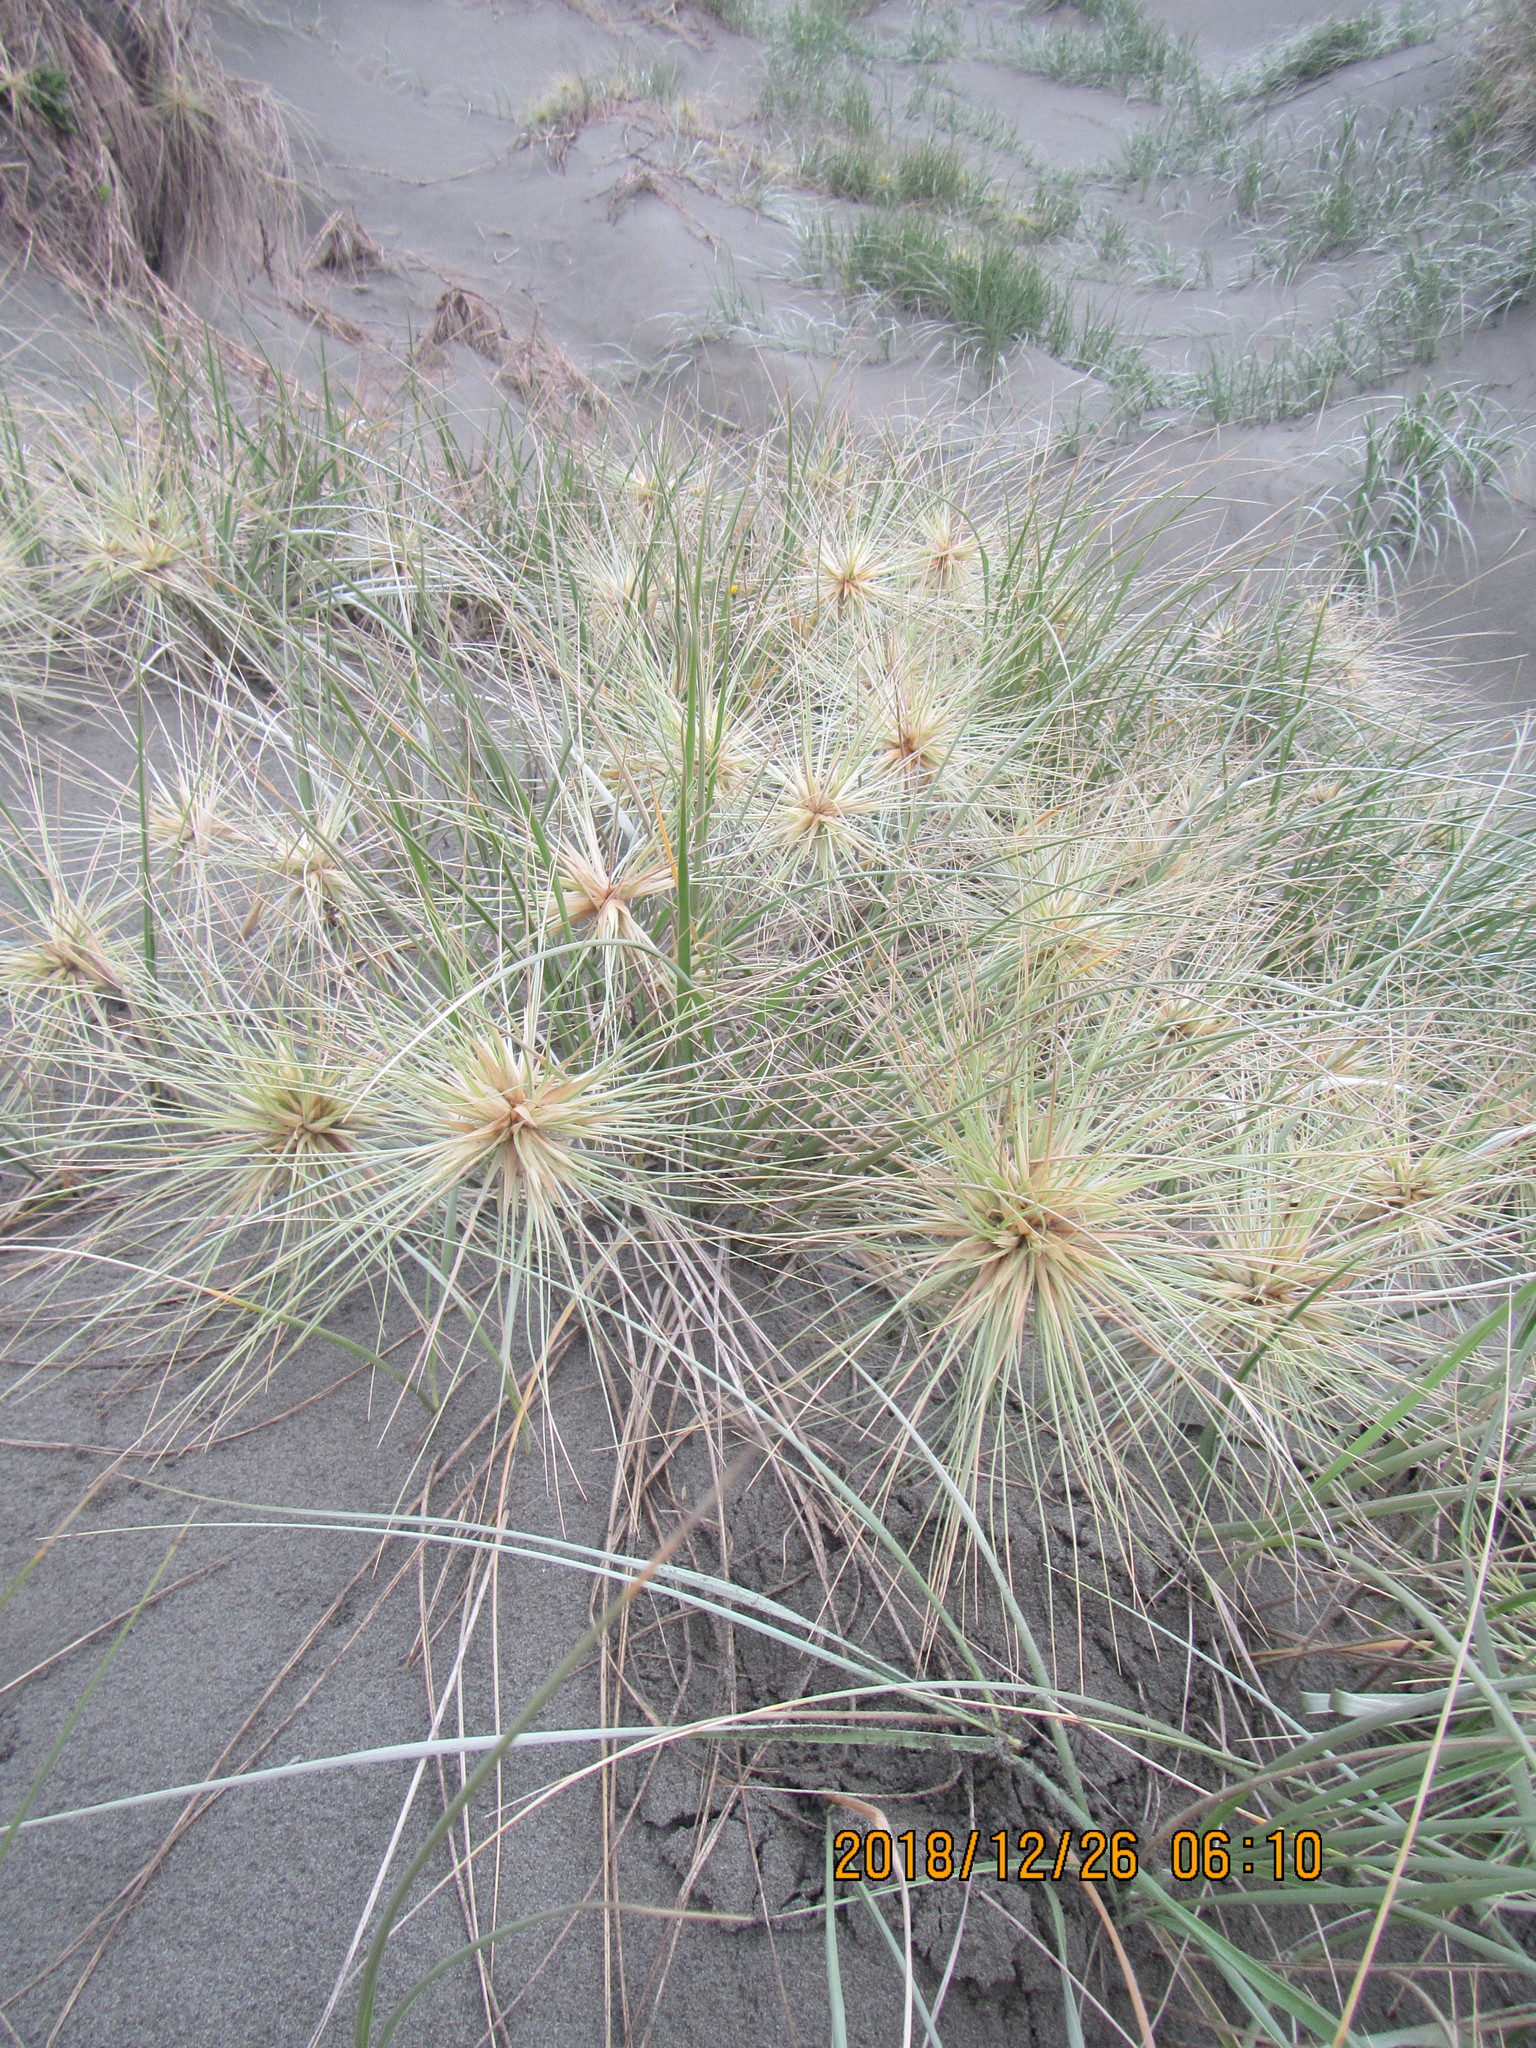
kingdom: Plantae
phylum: Tracheophyta
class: Liliopsida
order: Poales
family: Poaceae
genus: Spinifex
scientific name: Spinifex sericeus
